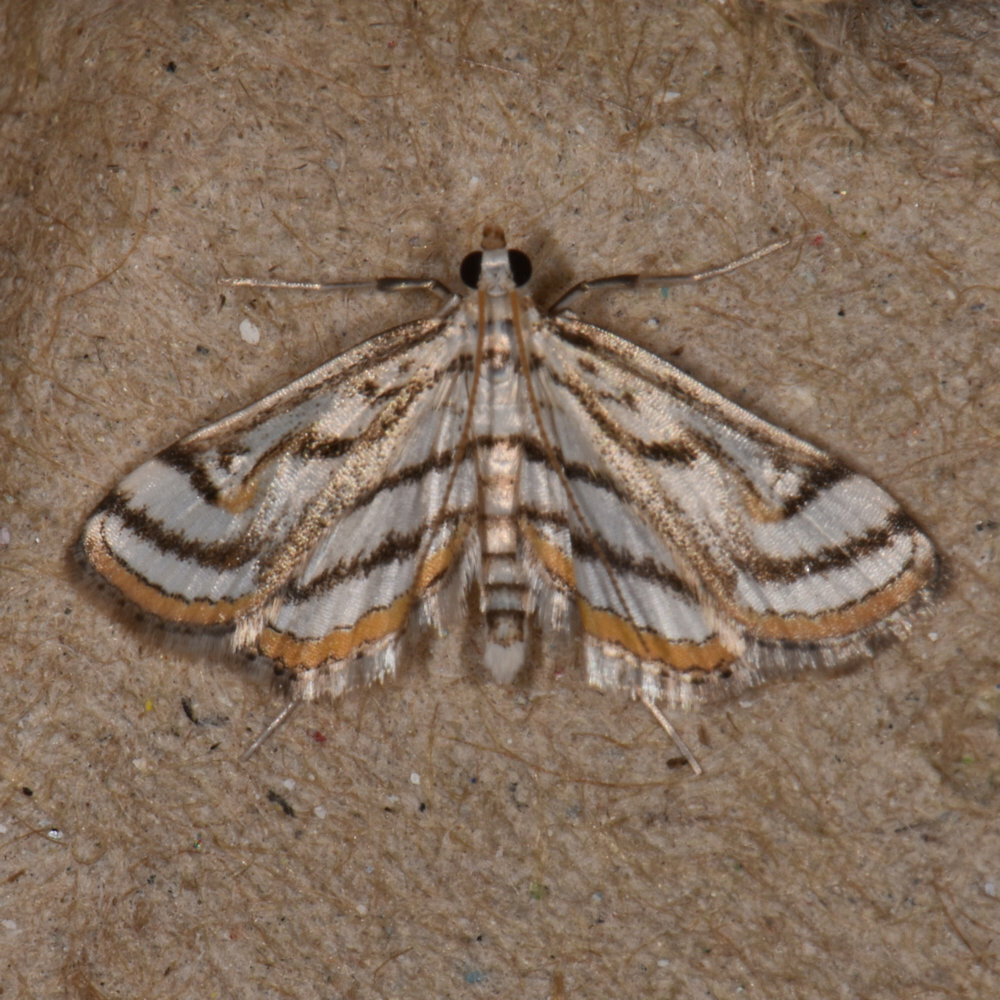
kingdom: Animalia
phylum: Arthropoda
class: Insecta
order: Lepidoptera
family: Crambidae
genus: Parapoynx
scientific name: Parapoynx badiusalis
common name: Chestnut-marked pondweed moth
